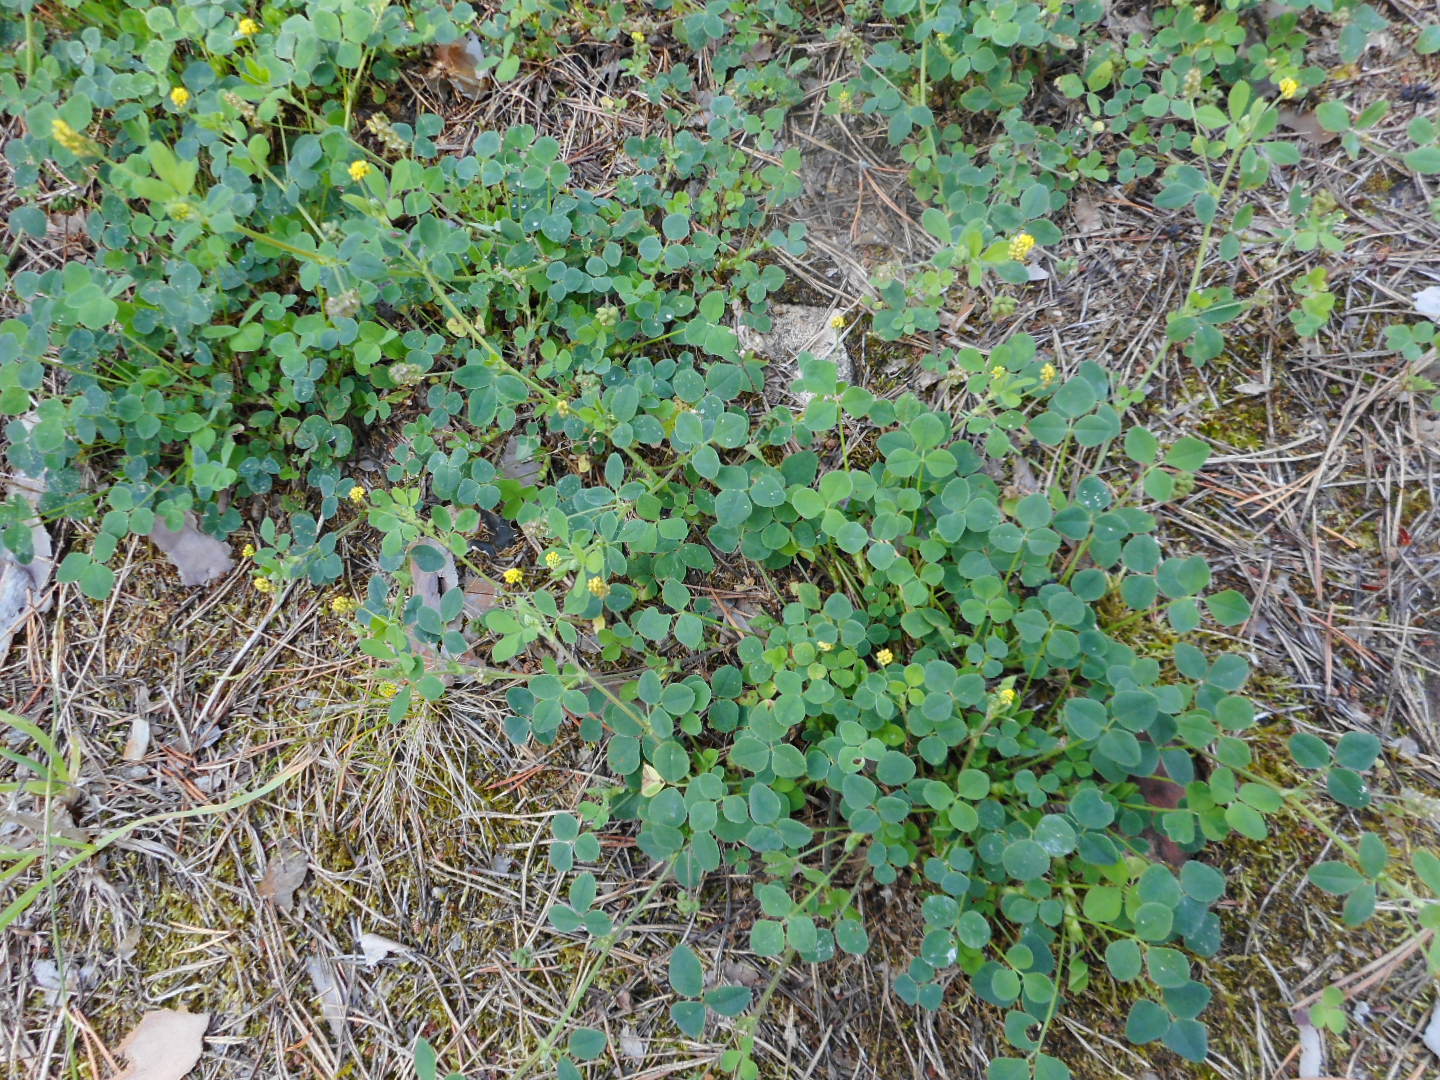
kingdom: Plantae
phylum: Tracheophyta
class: Magnoliopsida
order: Fabales
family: Fabaceae
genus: Medicago
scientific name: Medicago lupulina
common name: Black medick
